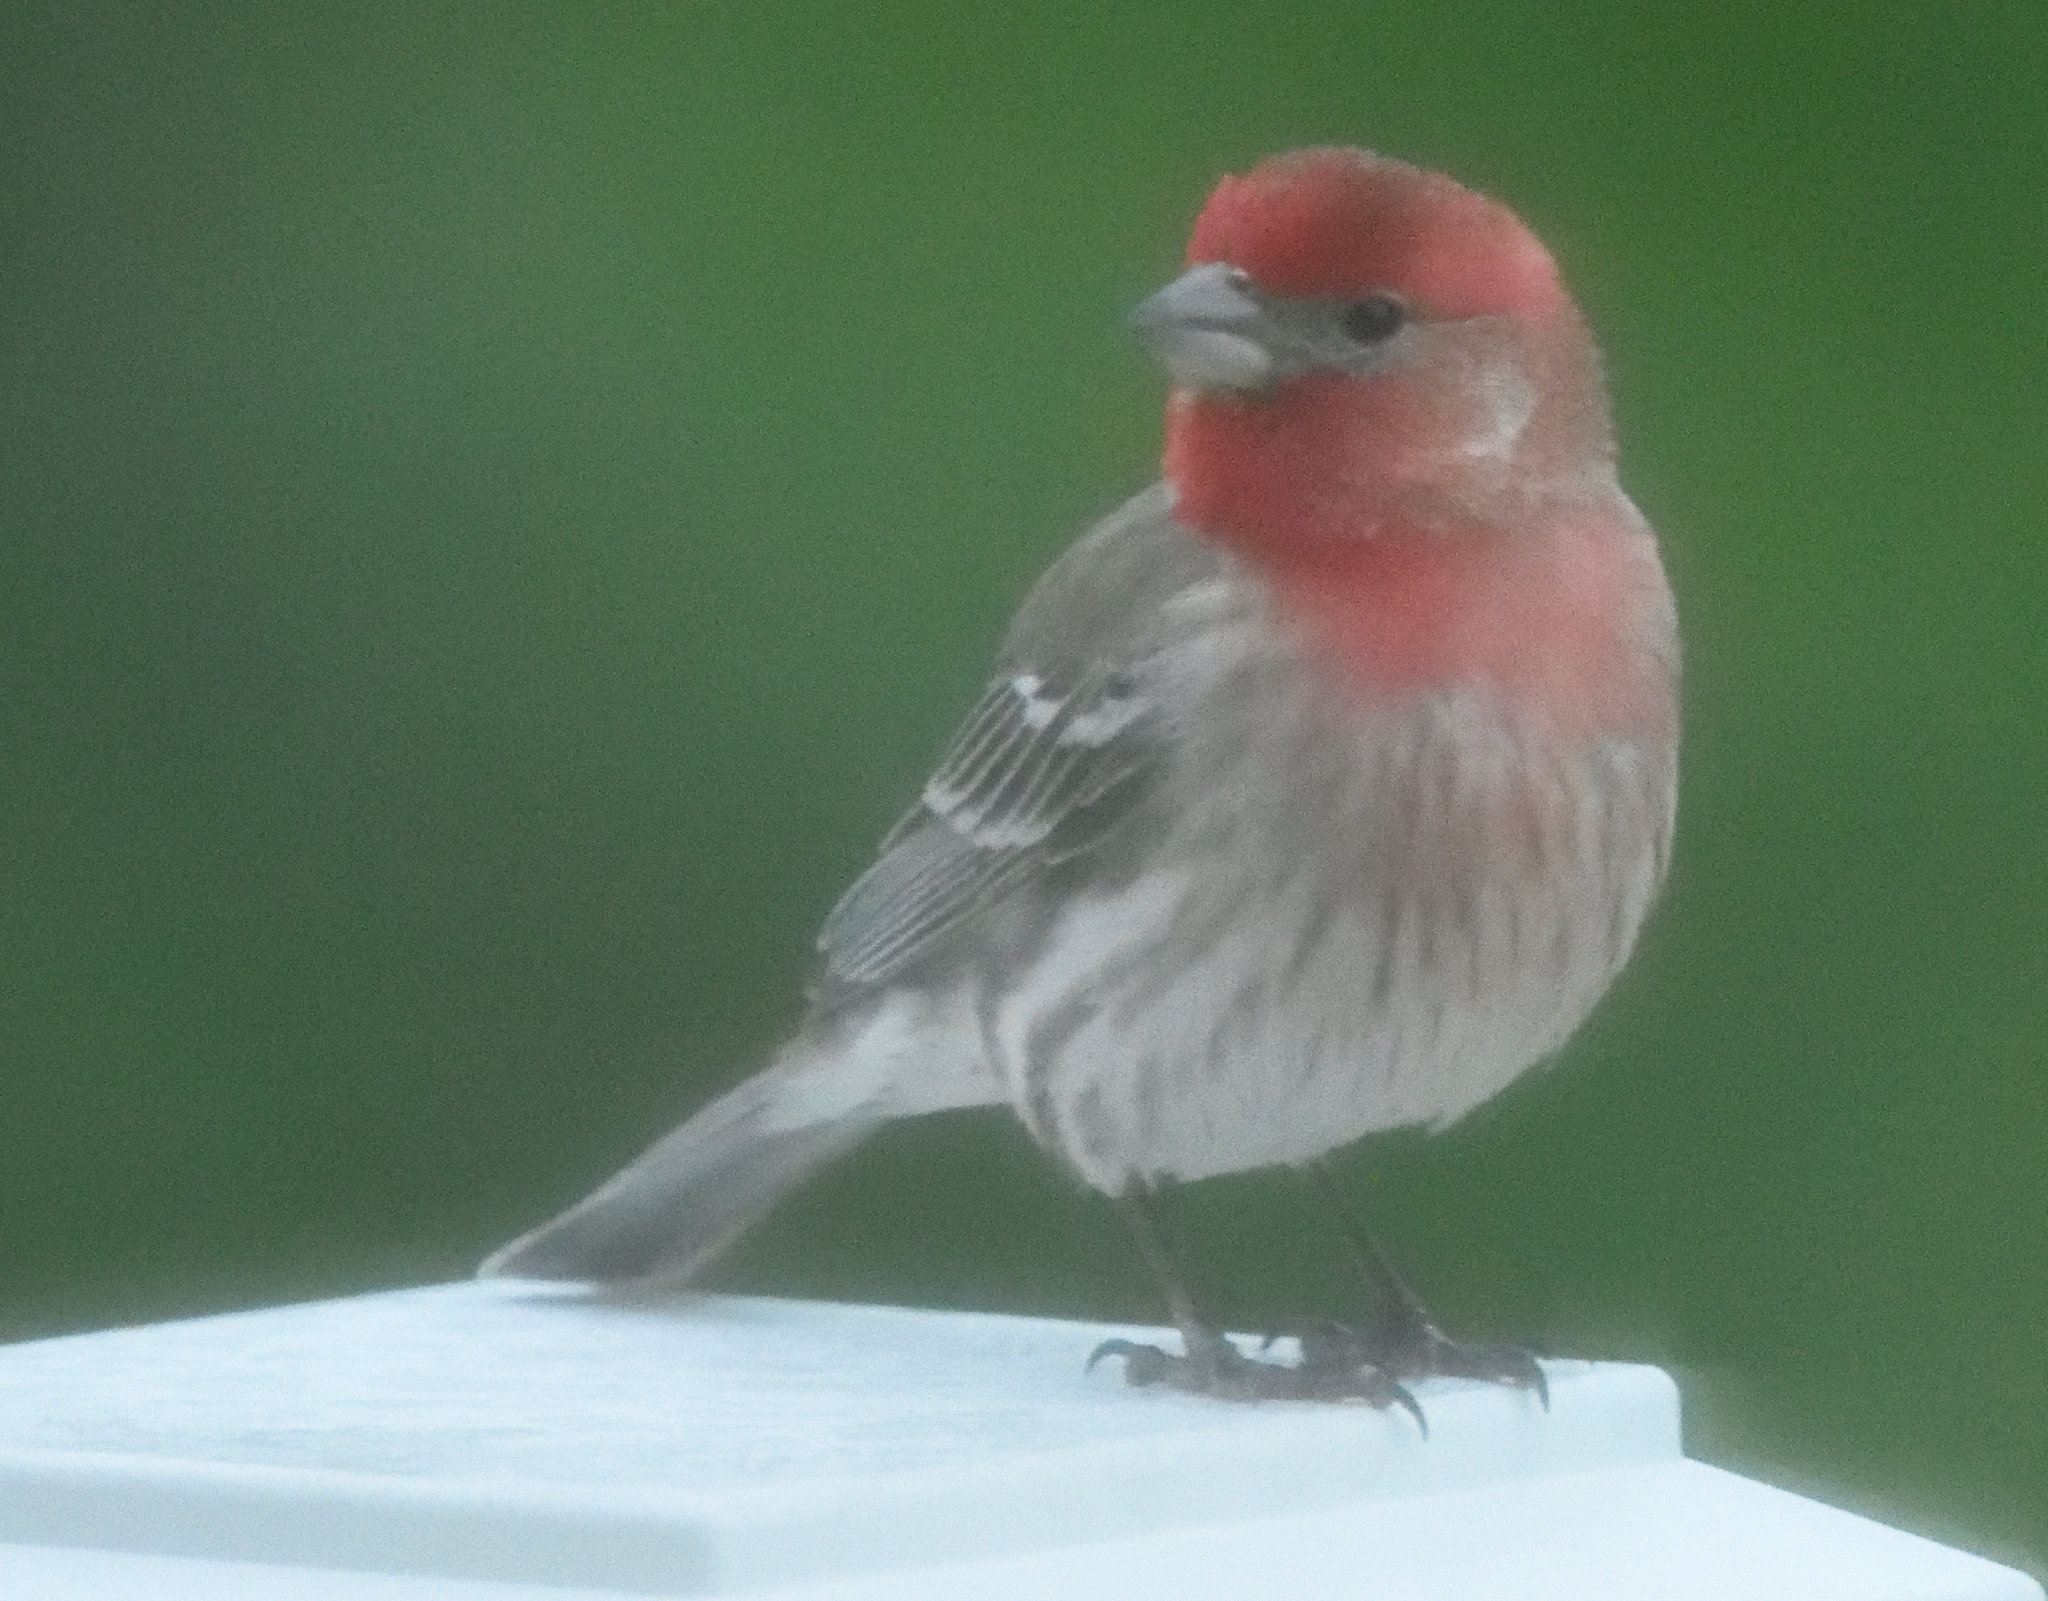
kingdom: Animalia
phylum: Chordata
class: Aves
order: Passeriformes
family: Fringillidae
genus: Haemorhous
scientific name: Haemorhous mexicanus
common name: House finch
